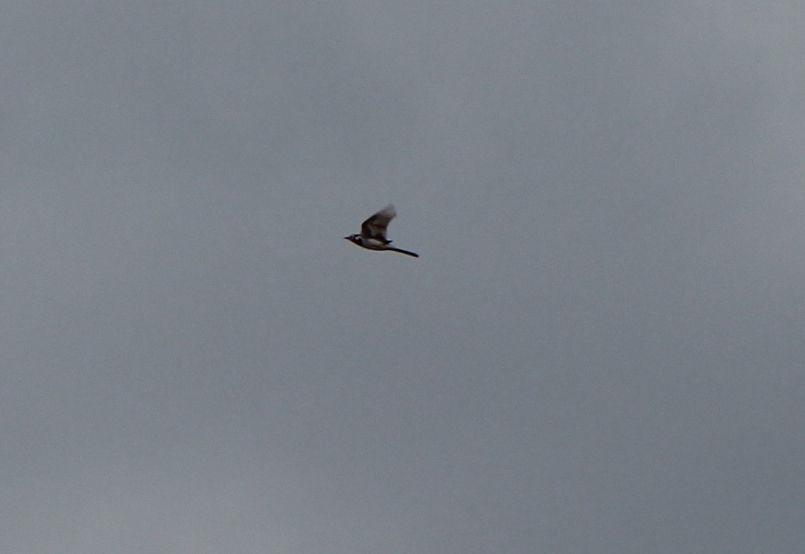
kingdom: Animalia
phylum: Chordata
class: Aves
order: Passeriformes
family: Motacillidae
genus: Motacilla
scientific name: Motacilla alba
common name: White wagtail
